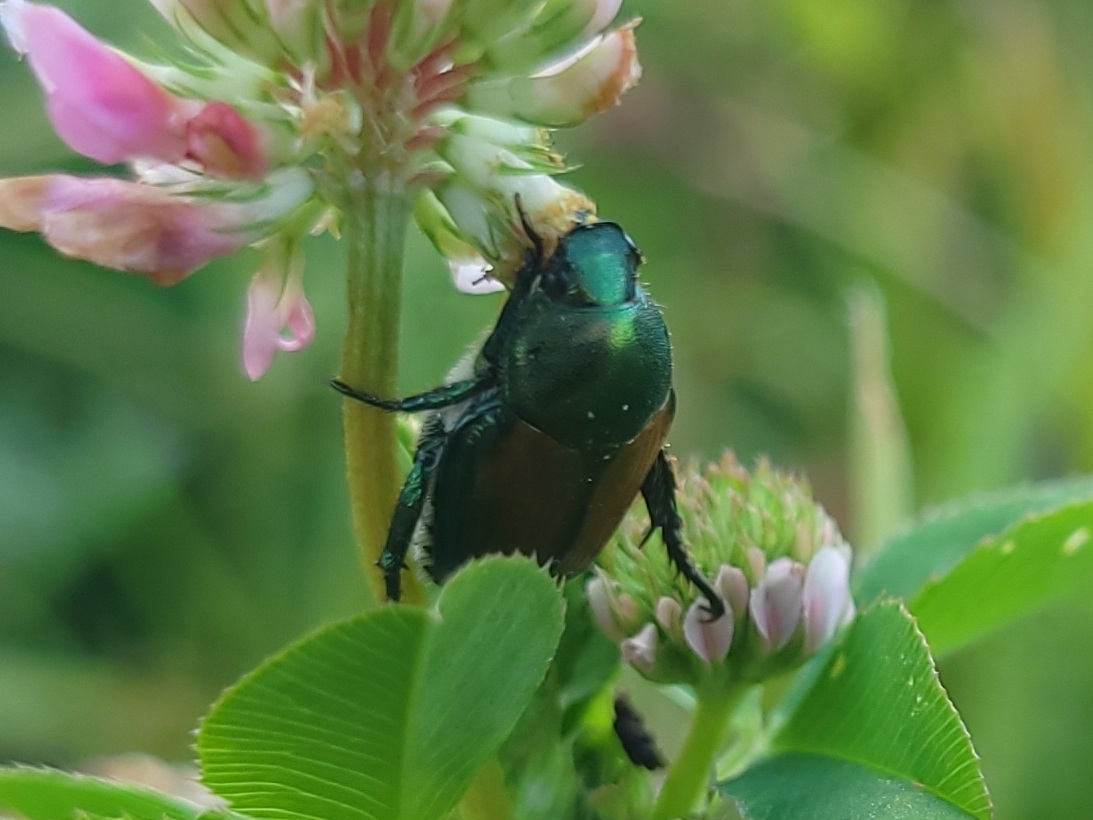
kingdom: Animalia
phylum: Arthropoda
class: Insecta
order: Coleoptera
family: Scarabaeidae
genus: Popillia
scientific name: Popillia japonica
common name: Japanese beetle
